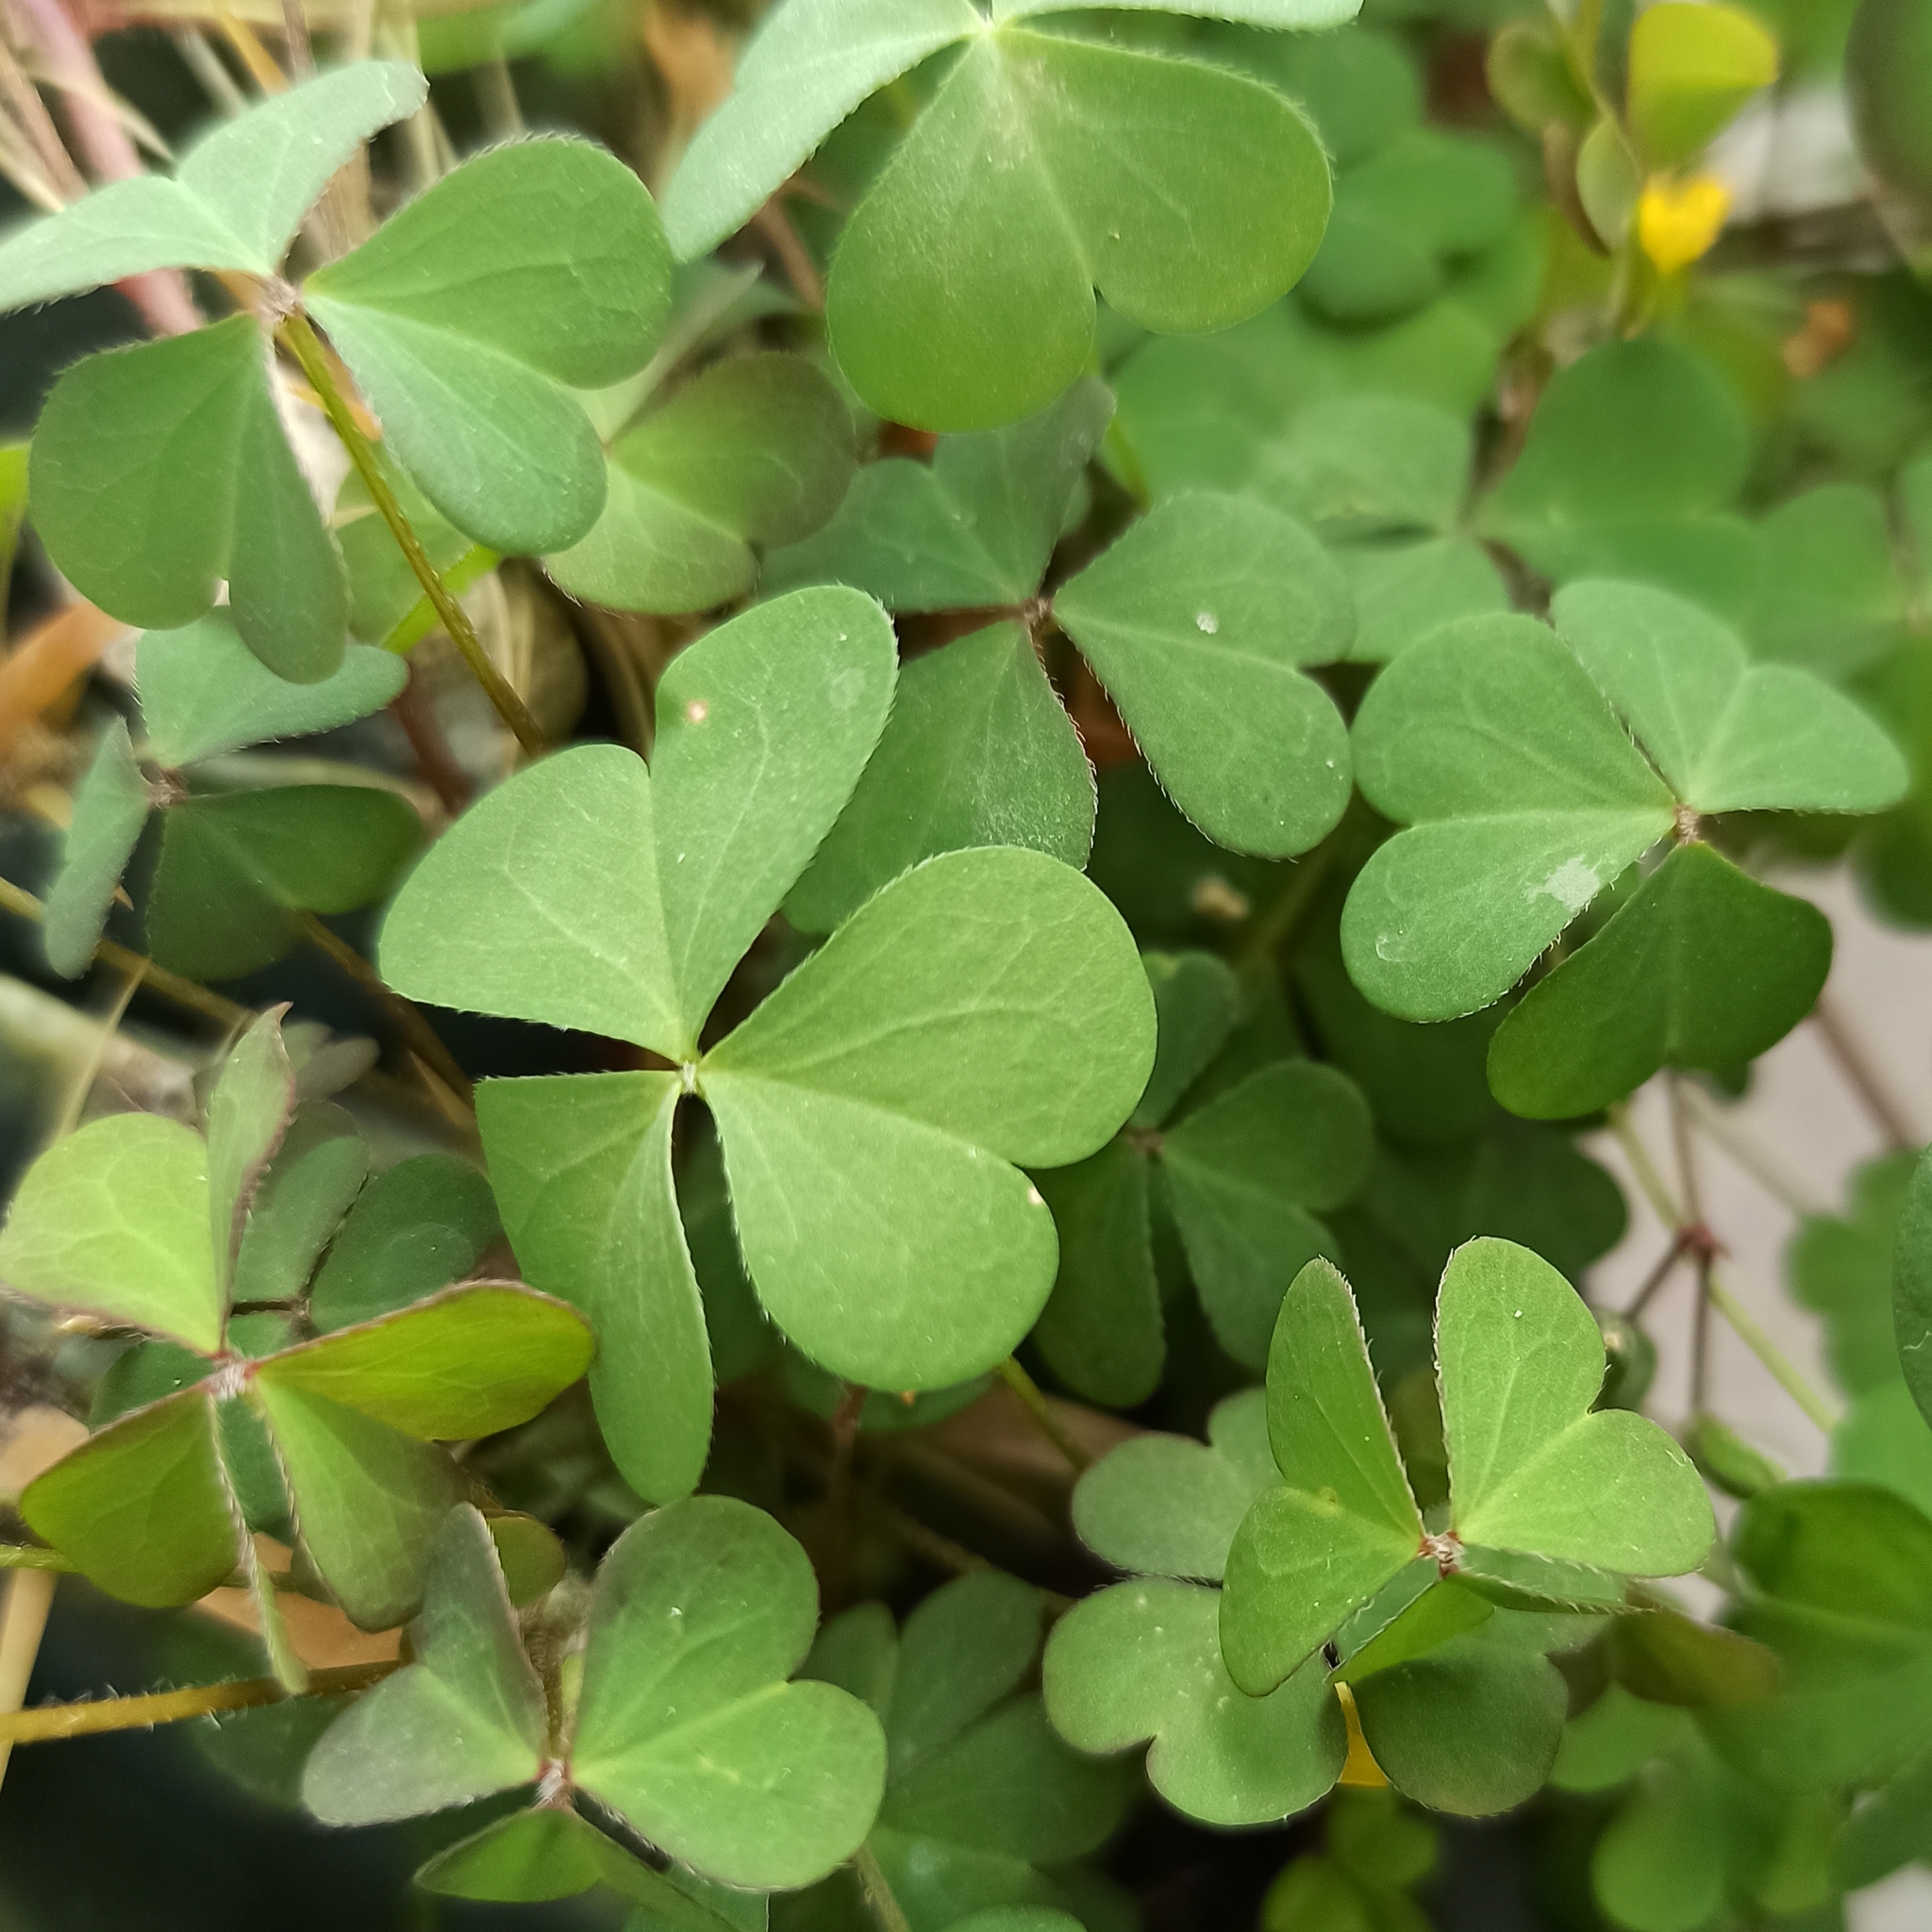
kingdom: Plantae
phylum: Tracheophyta
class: Magnoliopsida
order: Oxalidales
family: Oxalidaceae
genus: Oxalis
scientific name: Oxalis corniculata
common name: Procumbent yellow-sorrel
